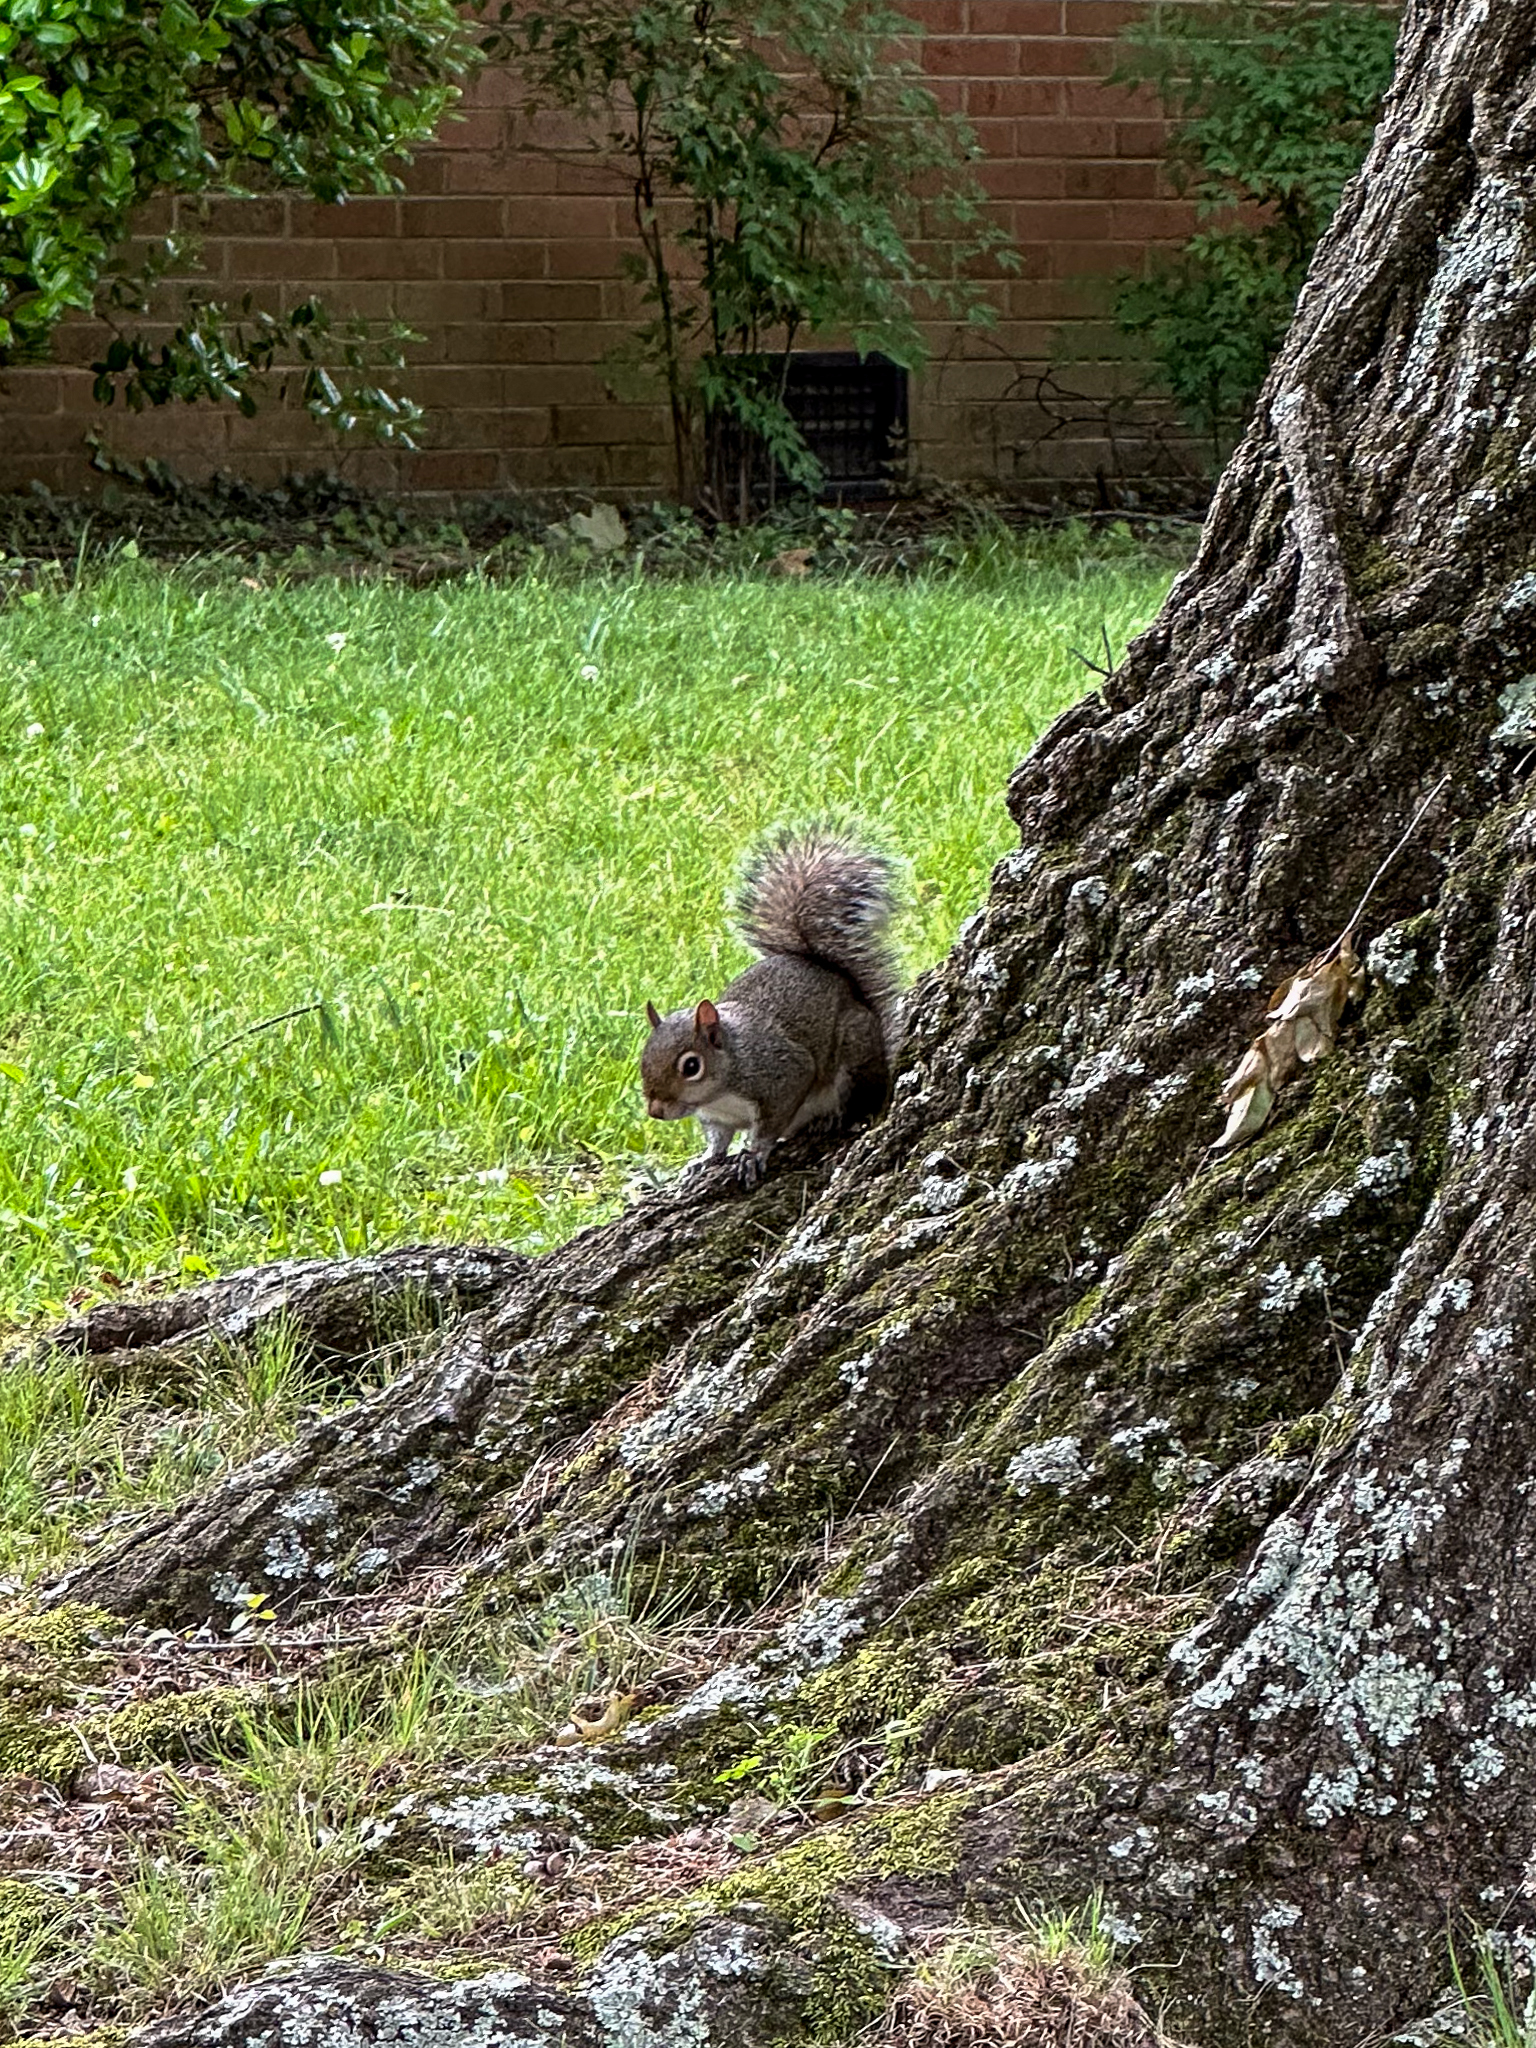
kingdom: Animalia
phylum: Chordata
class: Mammalia
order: Rodentia
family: Sciuridae
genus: Sciurus
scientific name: Sciurus carolinensis
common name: Eastern gray squirrel
